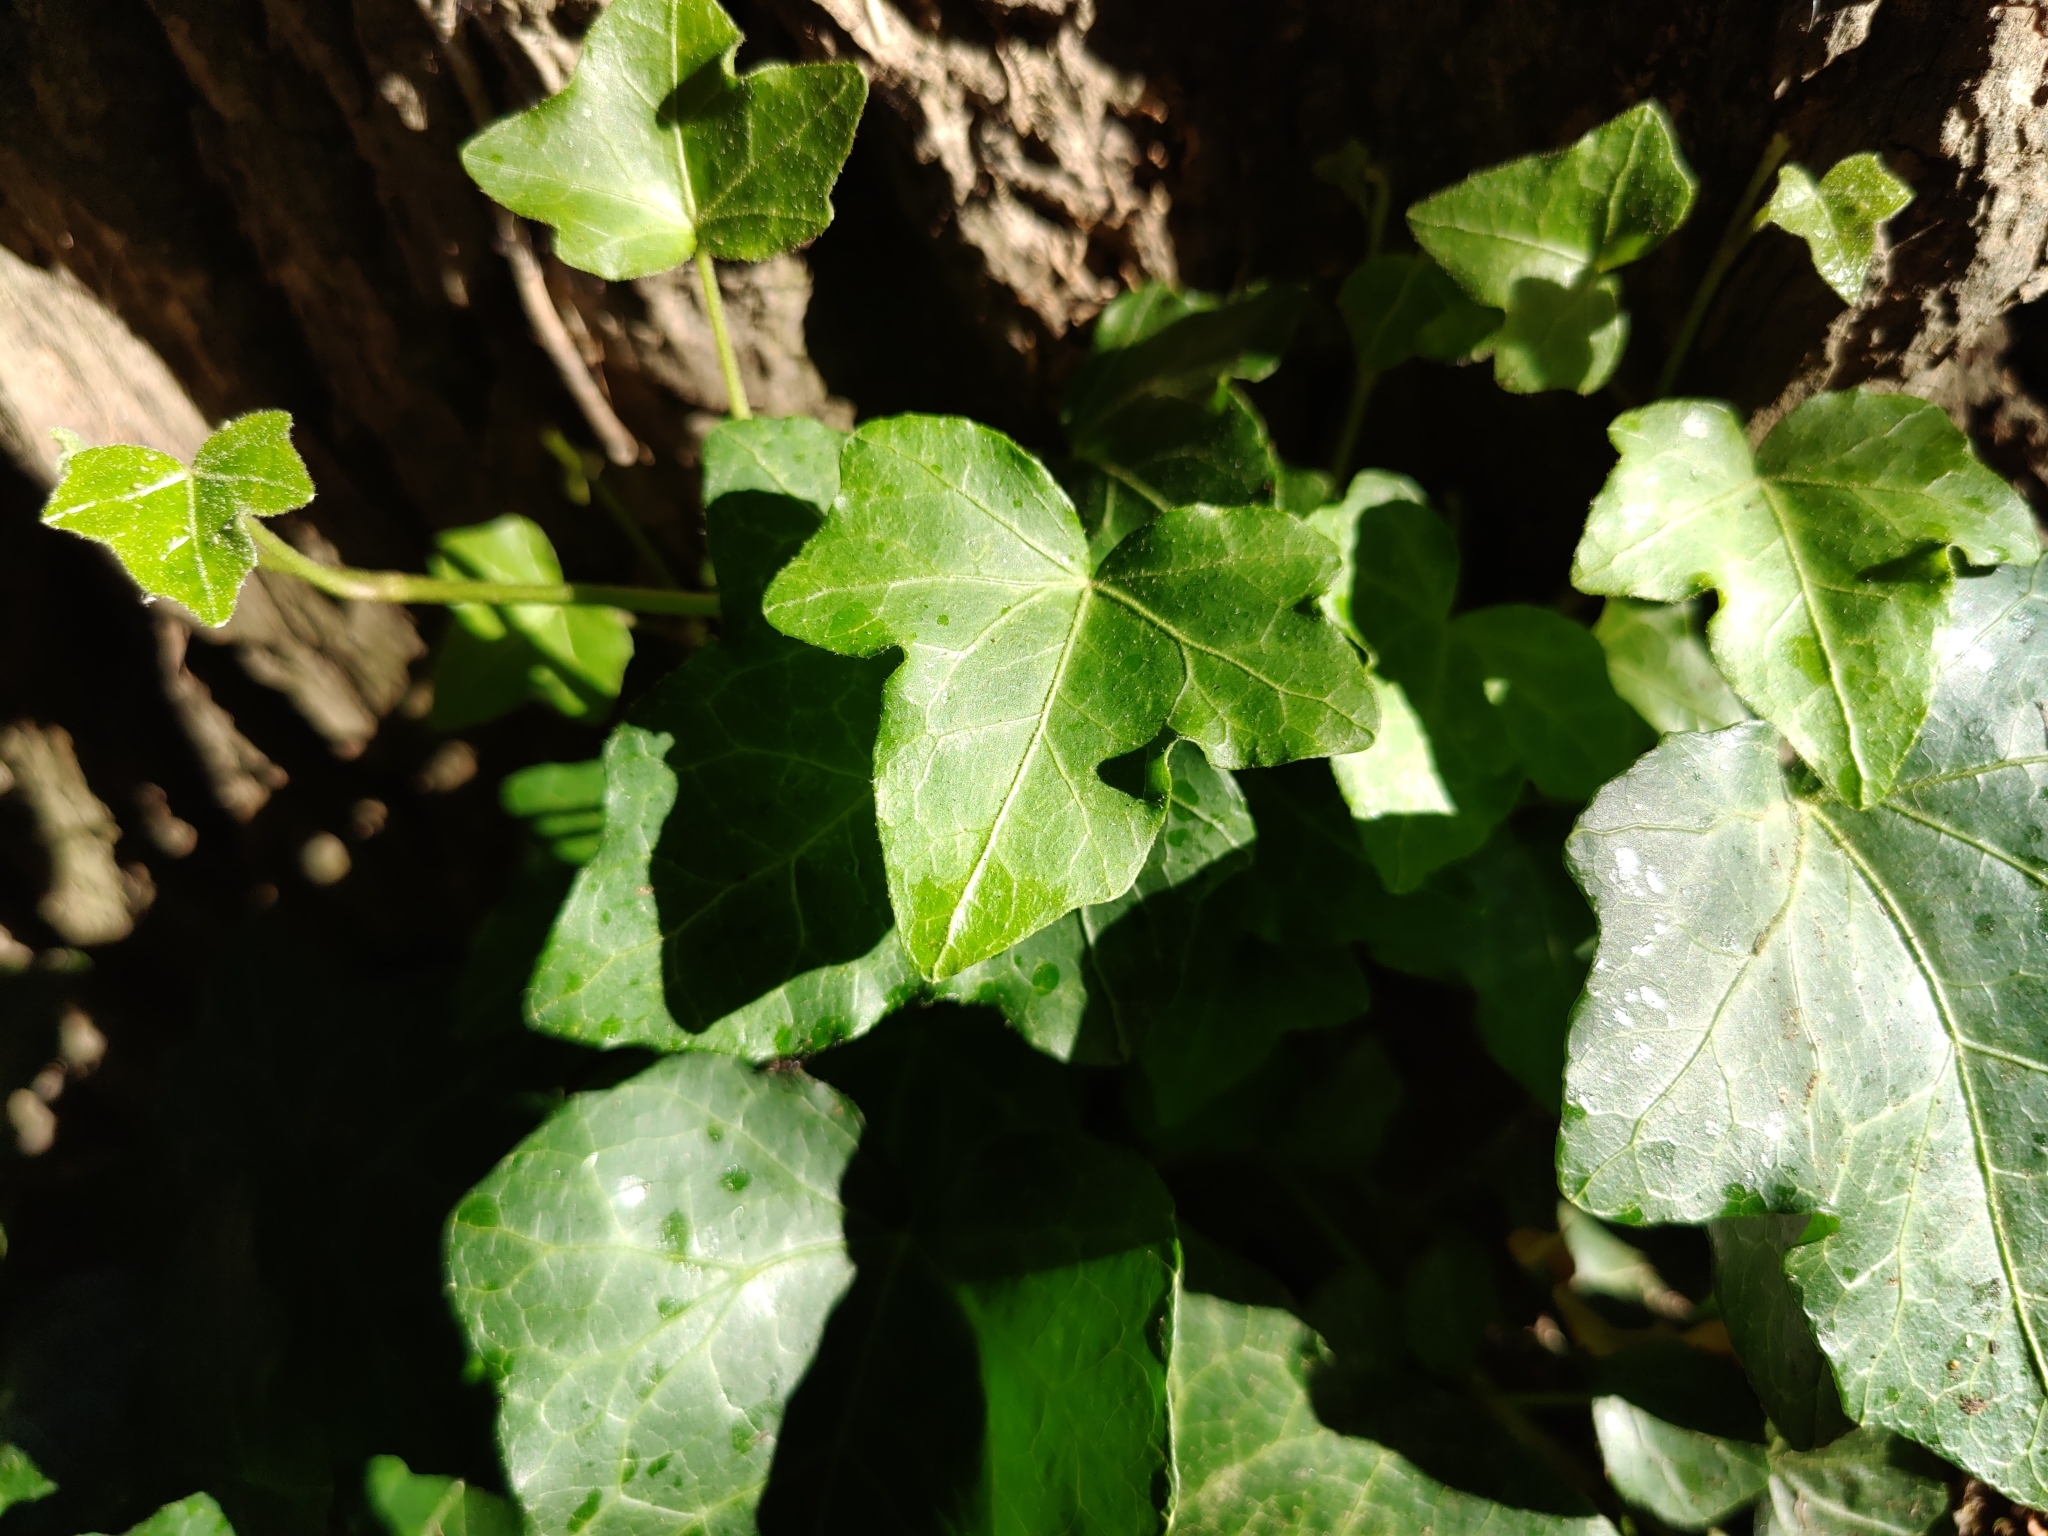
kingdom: Plantae
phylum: Tracheophyta
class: Magnoliopsida
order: Apiales
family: Araliaceae
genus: Hedera
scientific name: Hedera helix
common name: Ivy
